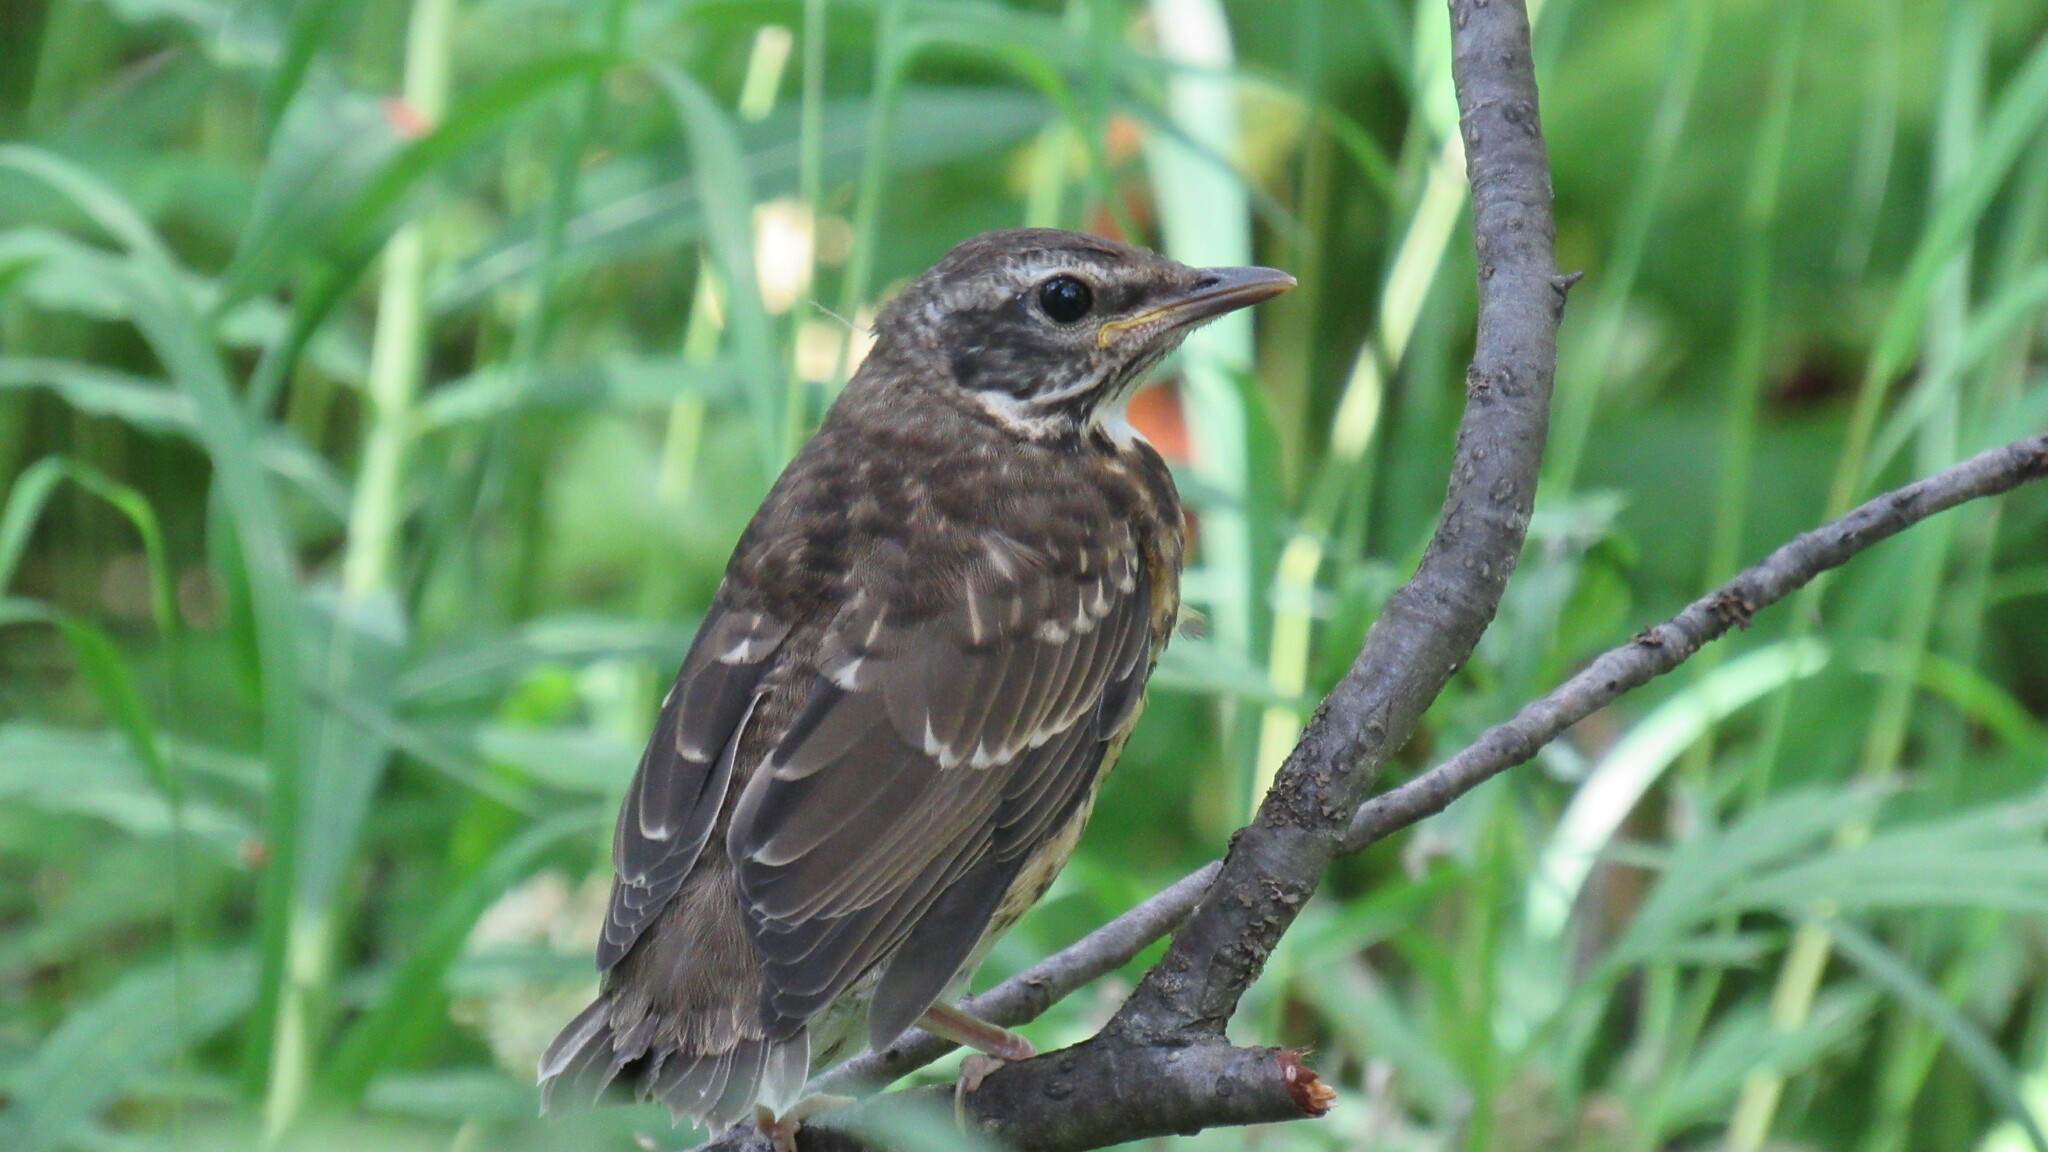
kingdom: Animalia
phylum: Chordata
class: Aves
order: Passeriformes
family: Turdidae
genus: Turdus
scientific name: Turdus obscurus
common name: Eyebrowed thrush
